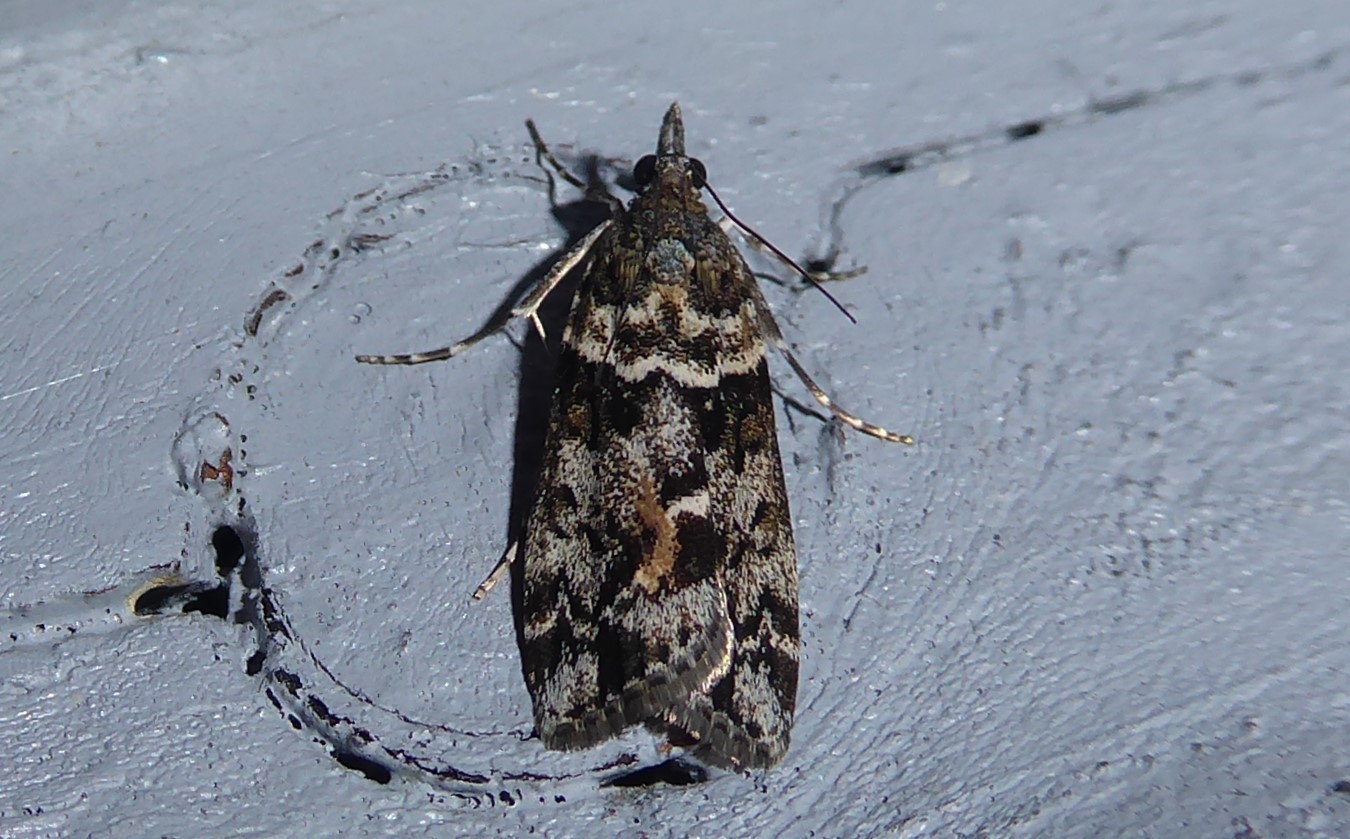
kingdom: Animalia
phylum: Arthropoda
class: Insecta
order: Lepidoptera
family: Crambidae
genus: Eudonia
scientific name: Eudonia submarginalis
